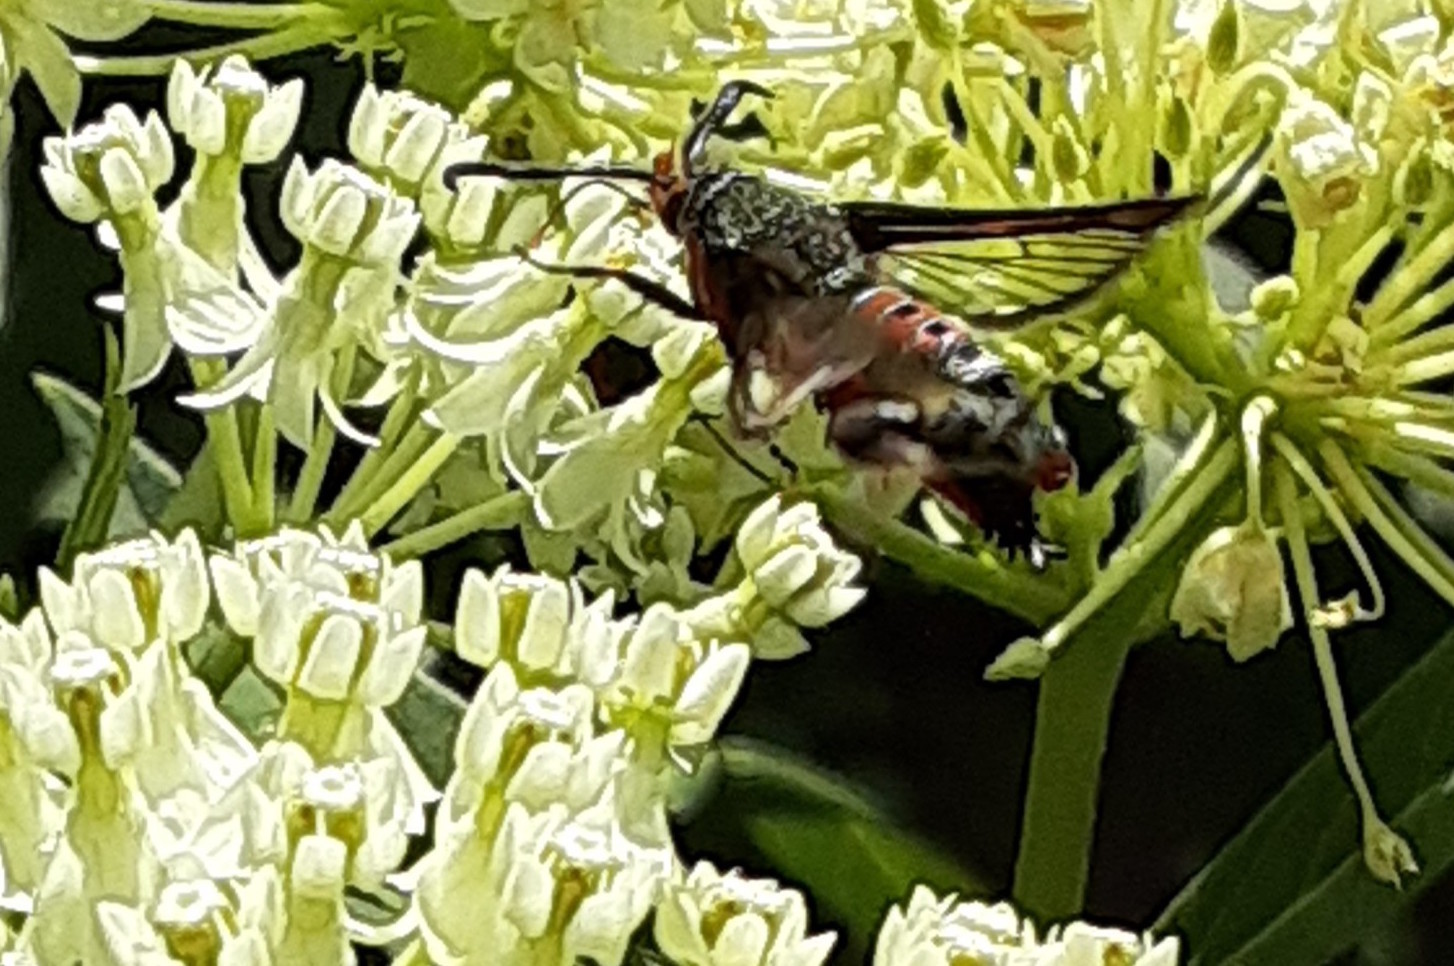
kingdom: Animalia
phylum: Arthropoda
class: Insecta
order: Lepidoptera
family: Sesiidae
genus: Eichlinia
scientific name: Eichlinia cucurbitae
